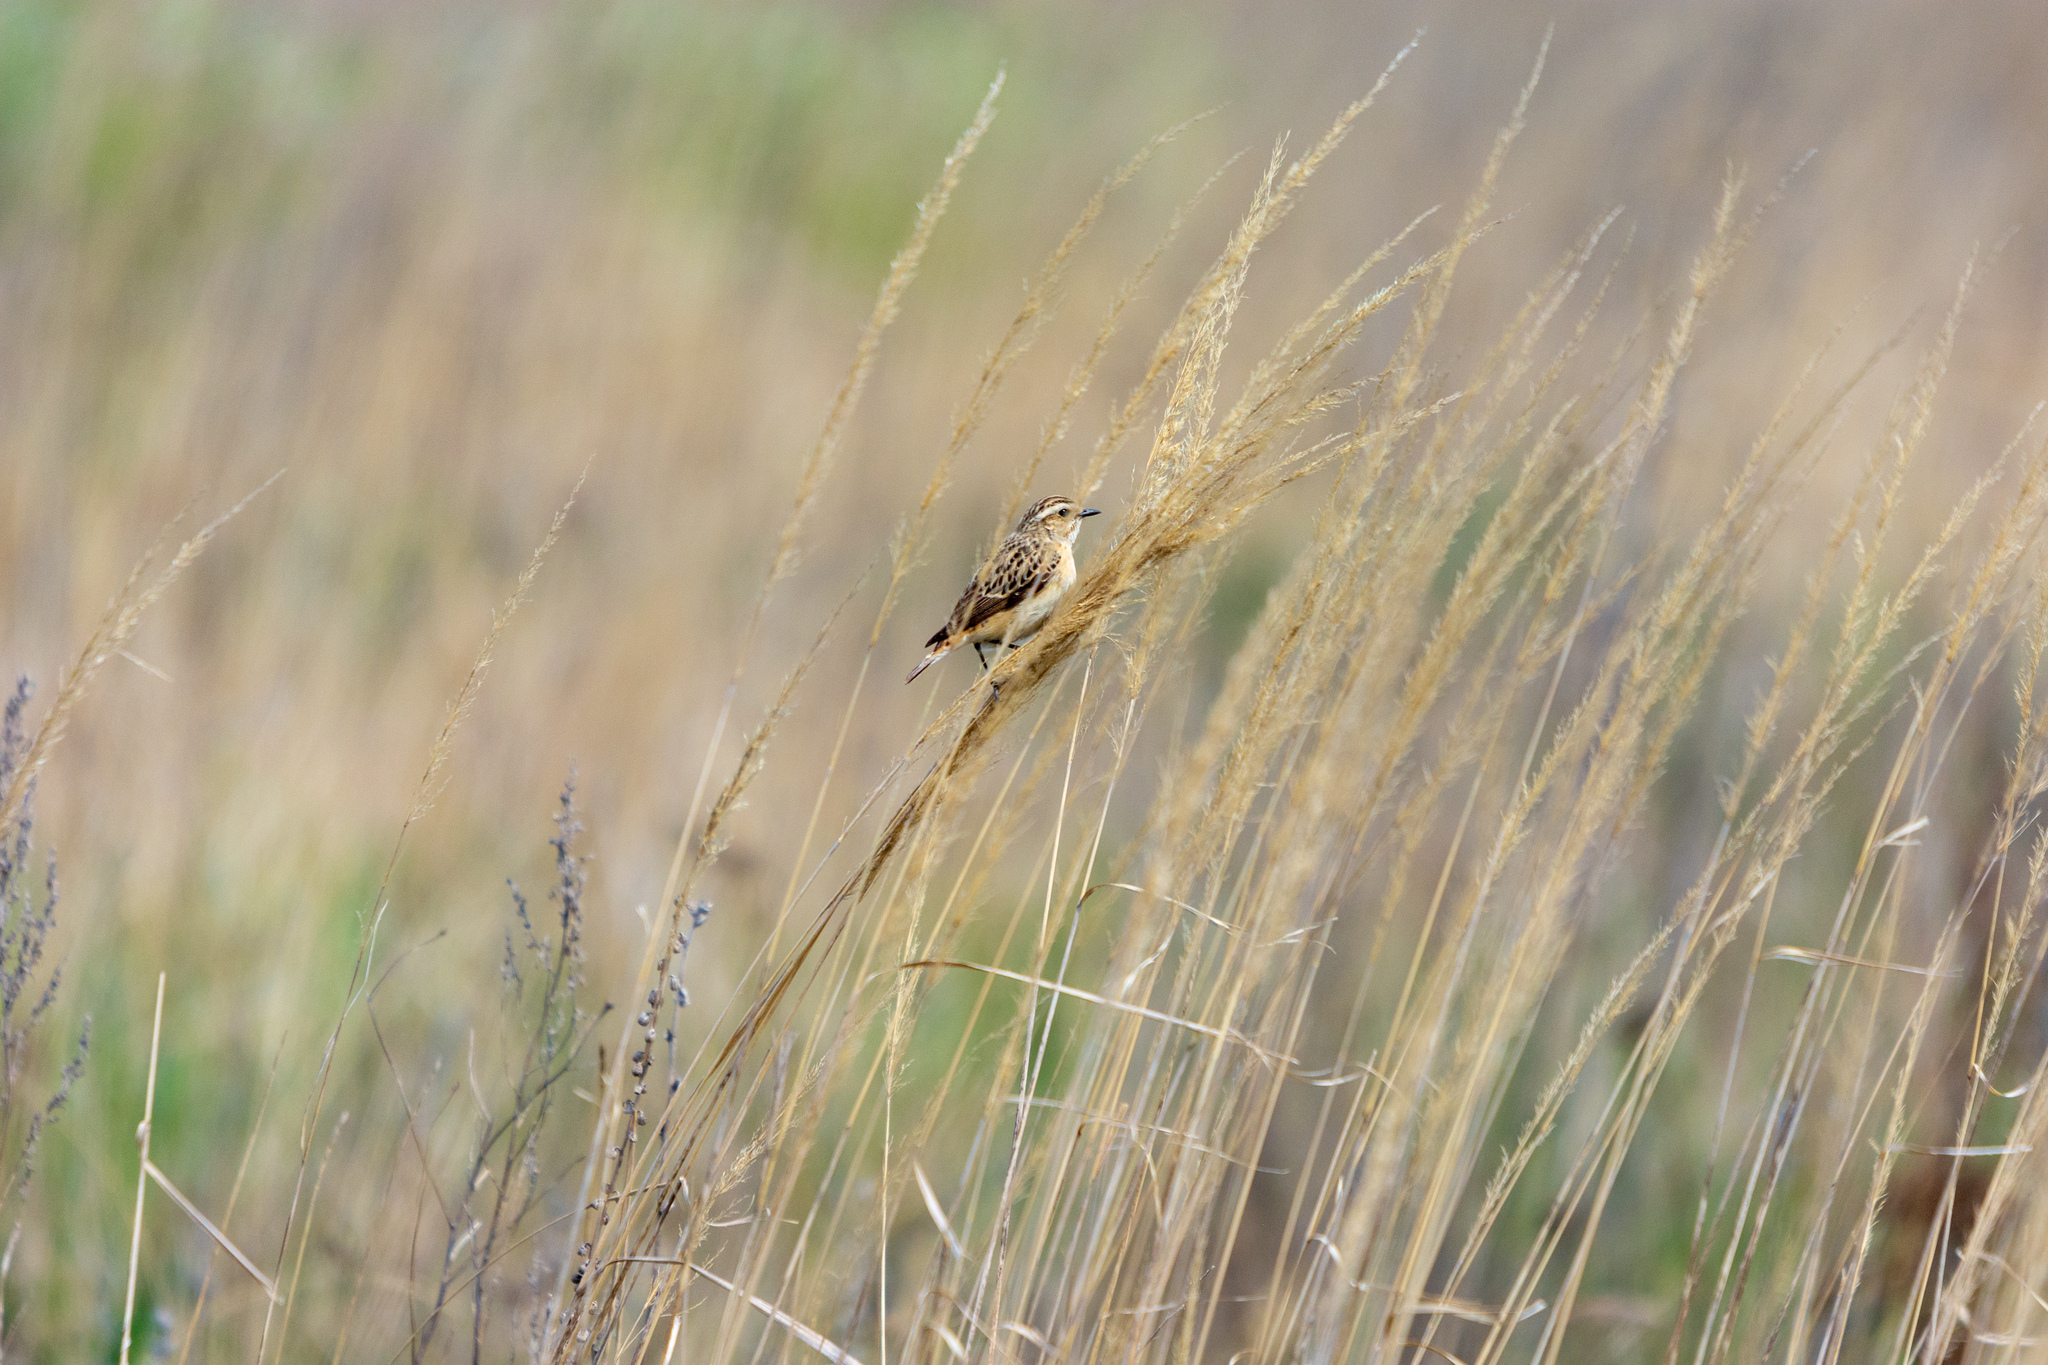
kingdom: Animalia
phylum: Chordata
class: Aves
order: Passeriformes
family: Muscicapidae
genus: Saxicola
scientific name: Saxicola rubetra
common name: Whinchat
